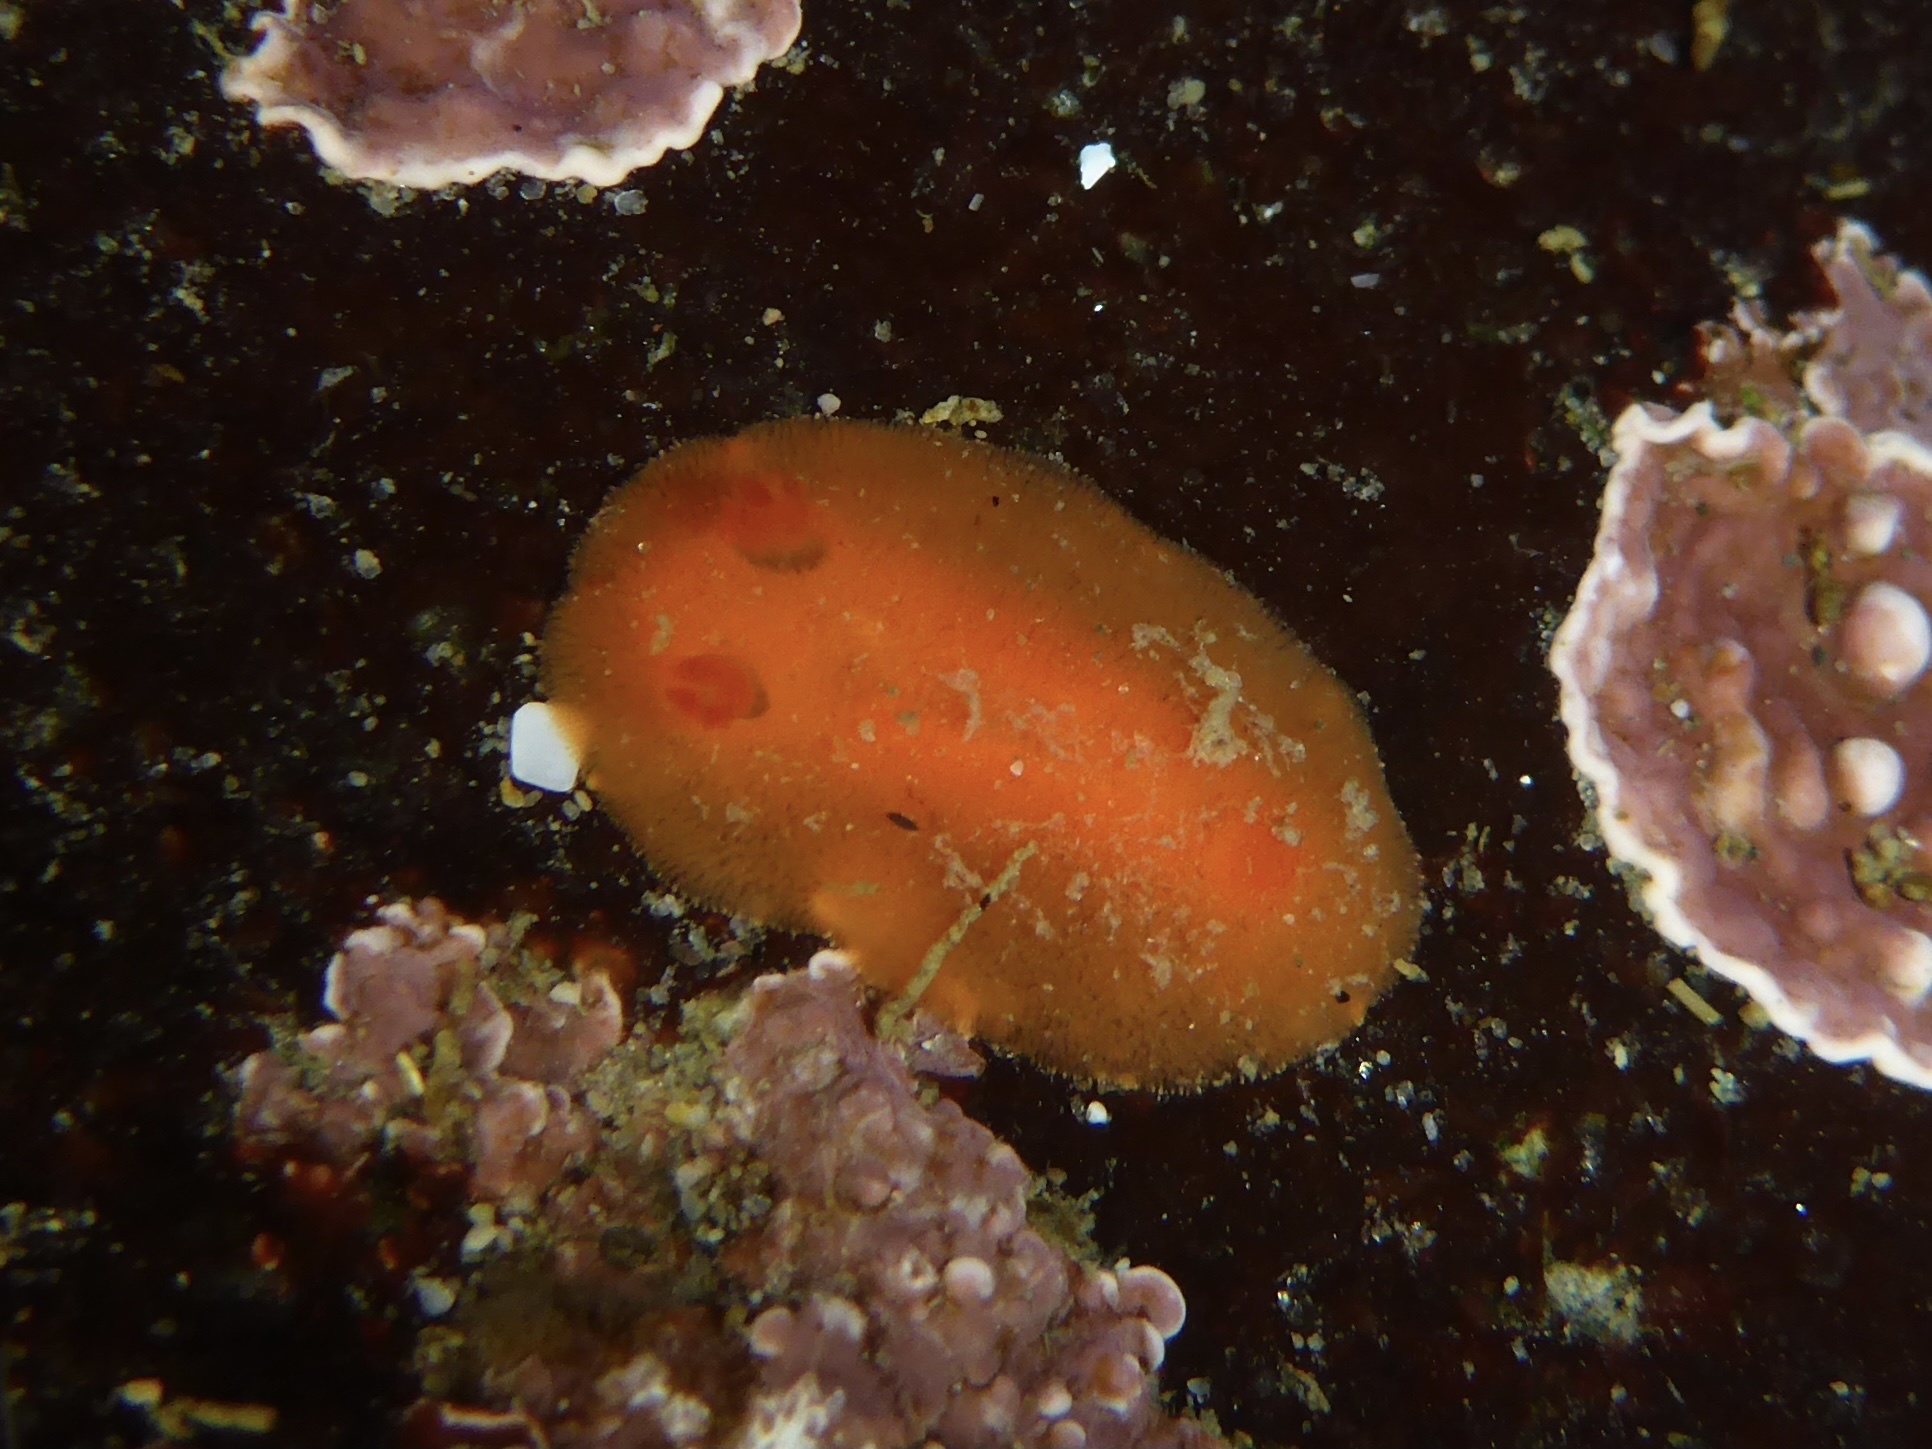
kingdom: Animalia
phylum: Mollusca
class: Gastropoda
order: Nudibranchia
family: Discodorididae
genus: Rostanga
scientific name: Rostanga pulchra
